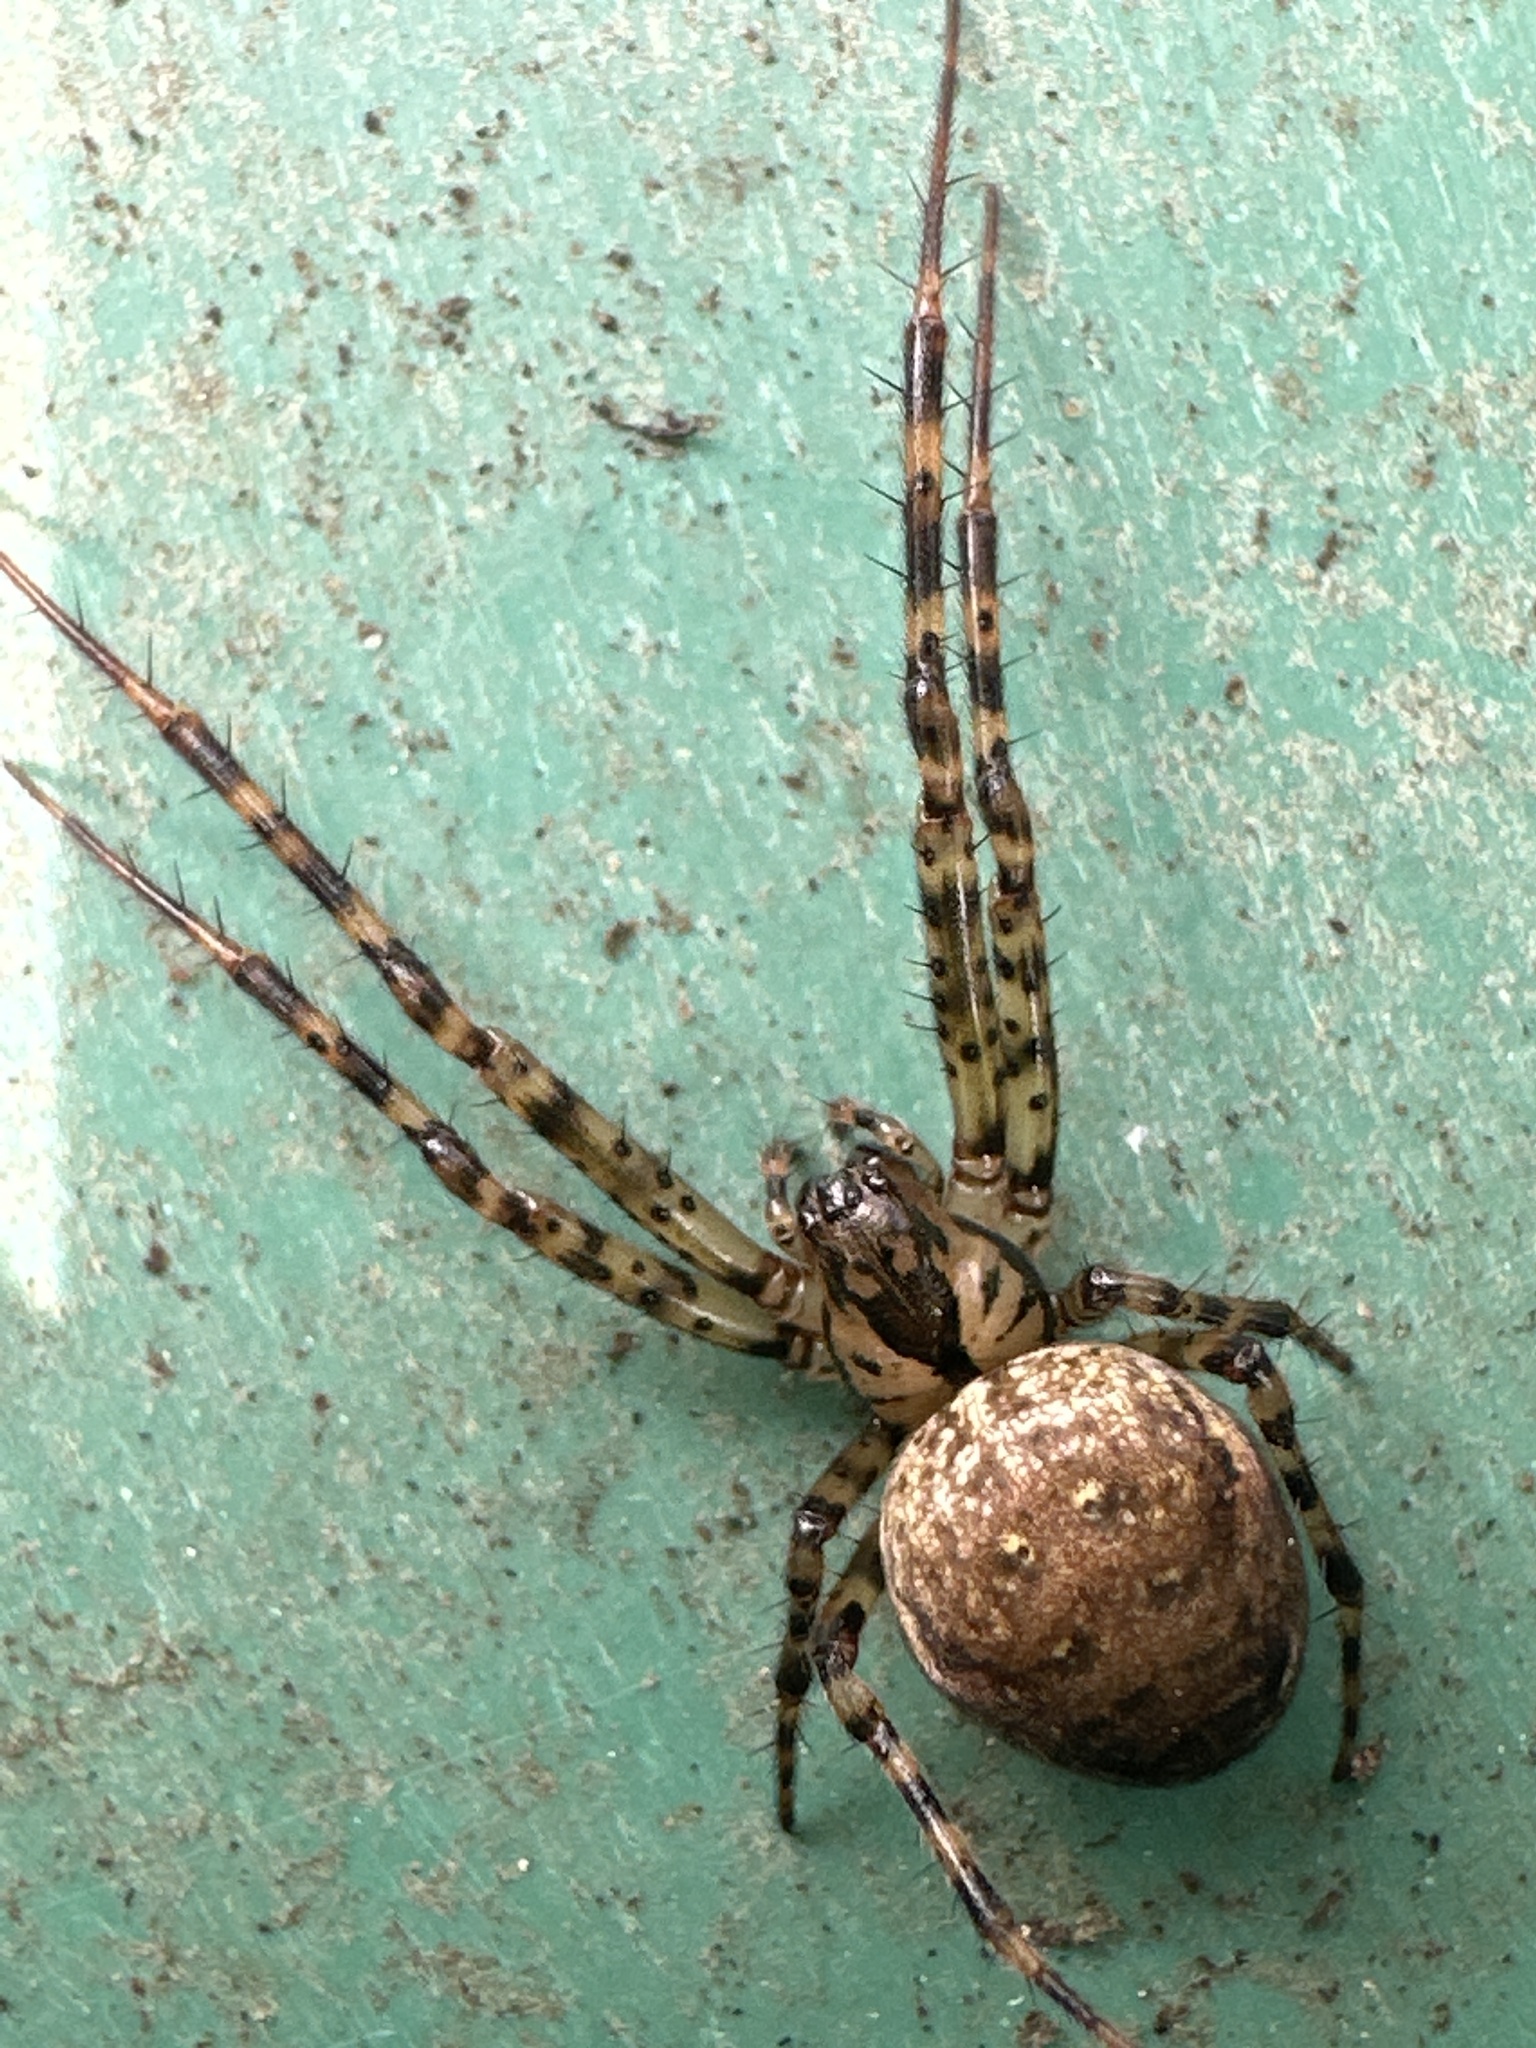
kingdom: Animalia
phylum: Arthropoda
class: Arachnida
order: Araneae
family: Tetragnathidae
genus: Metellina
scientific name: Metellina merianae
